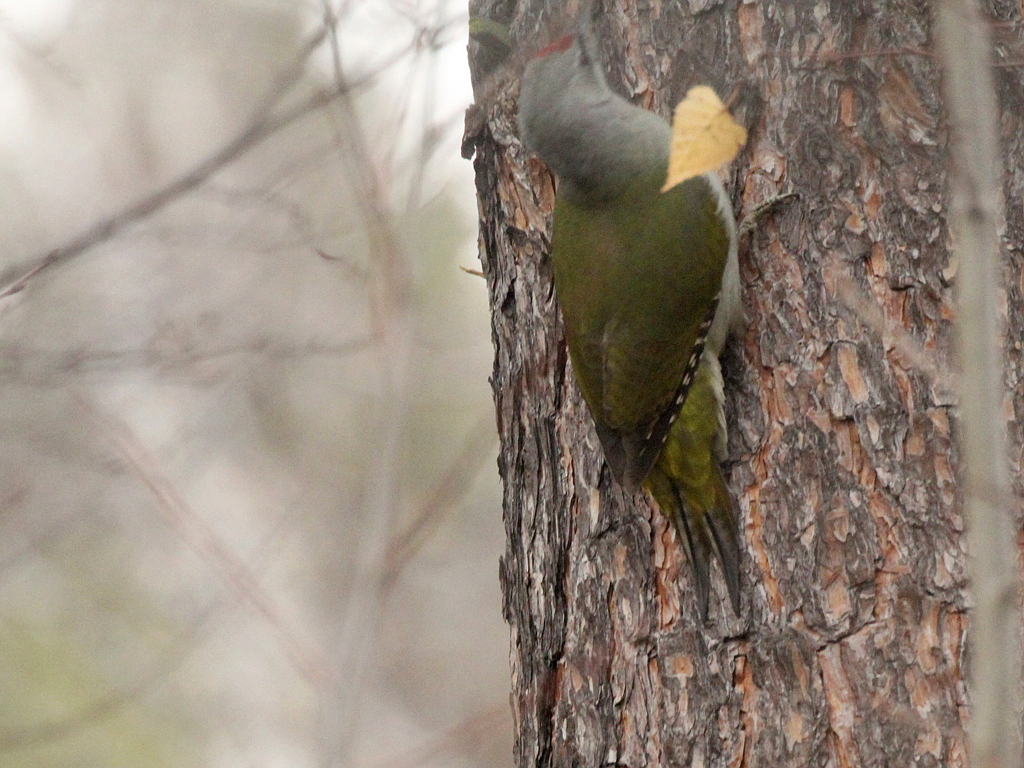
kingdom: Animalia
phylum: Chordata
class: Aves
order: Piciformes
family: Picidae
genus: Picus
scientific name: Picus canus
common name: Grey-headed woodpecker
